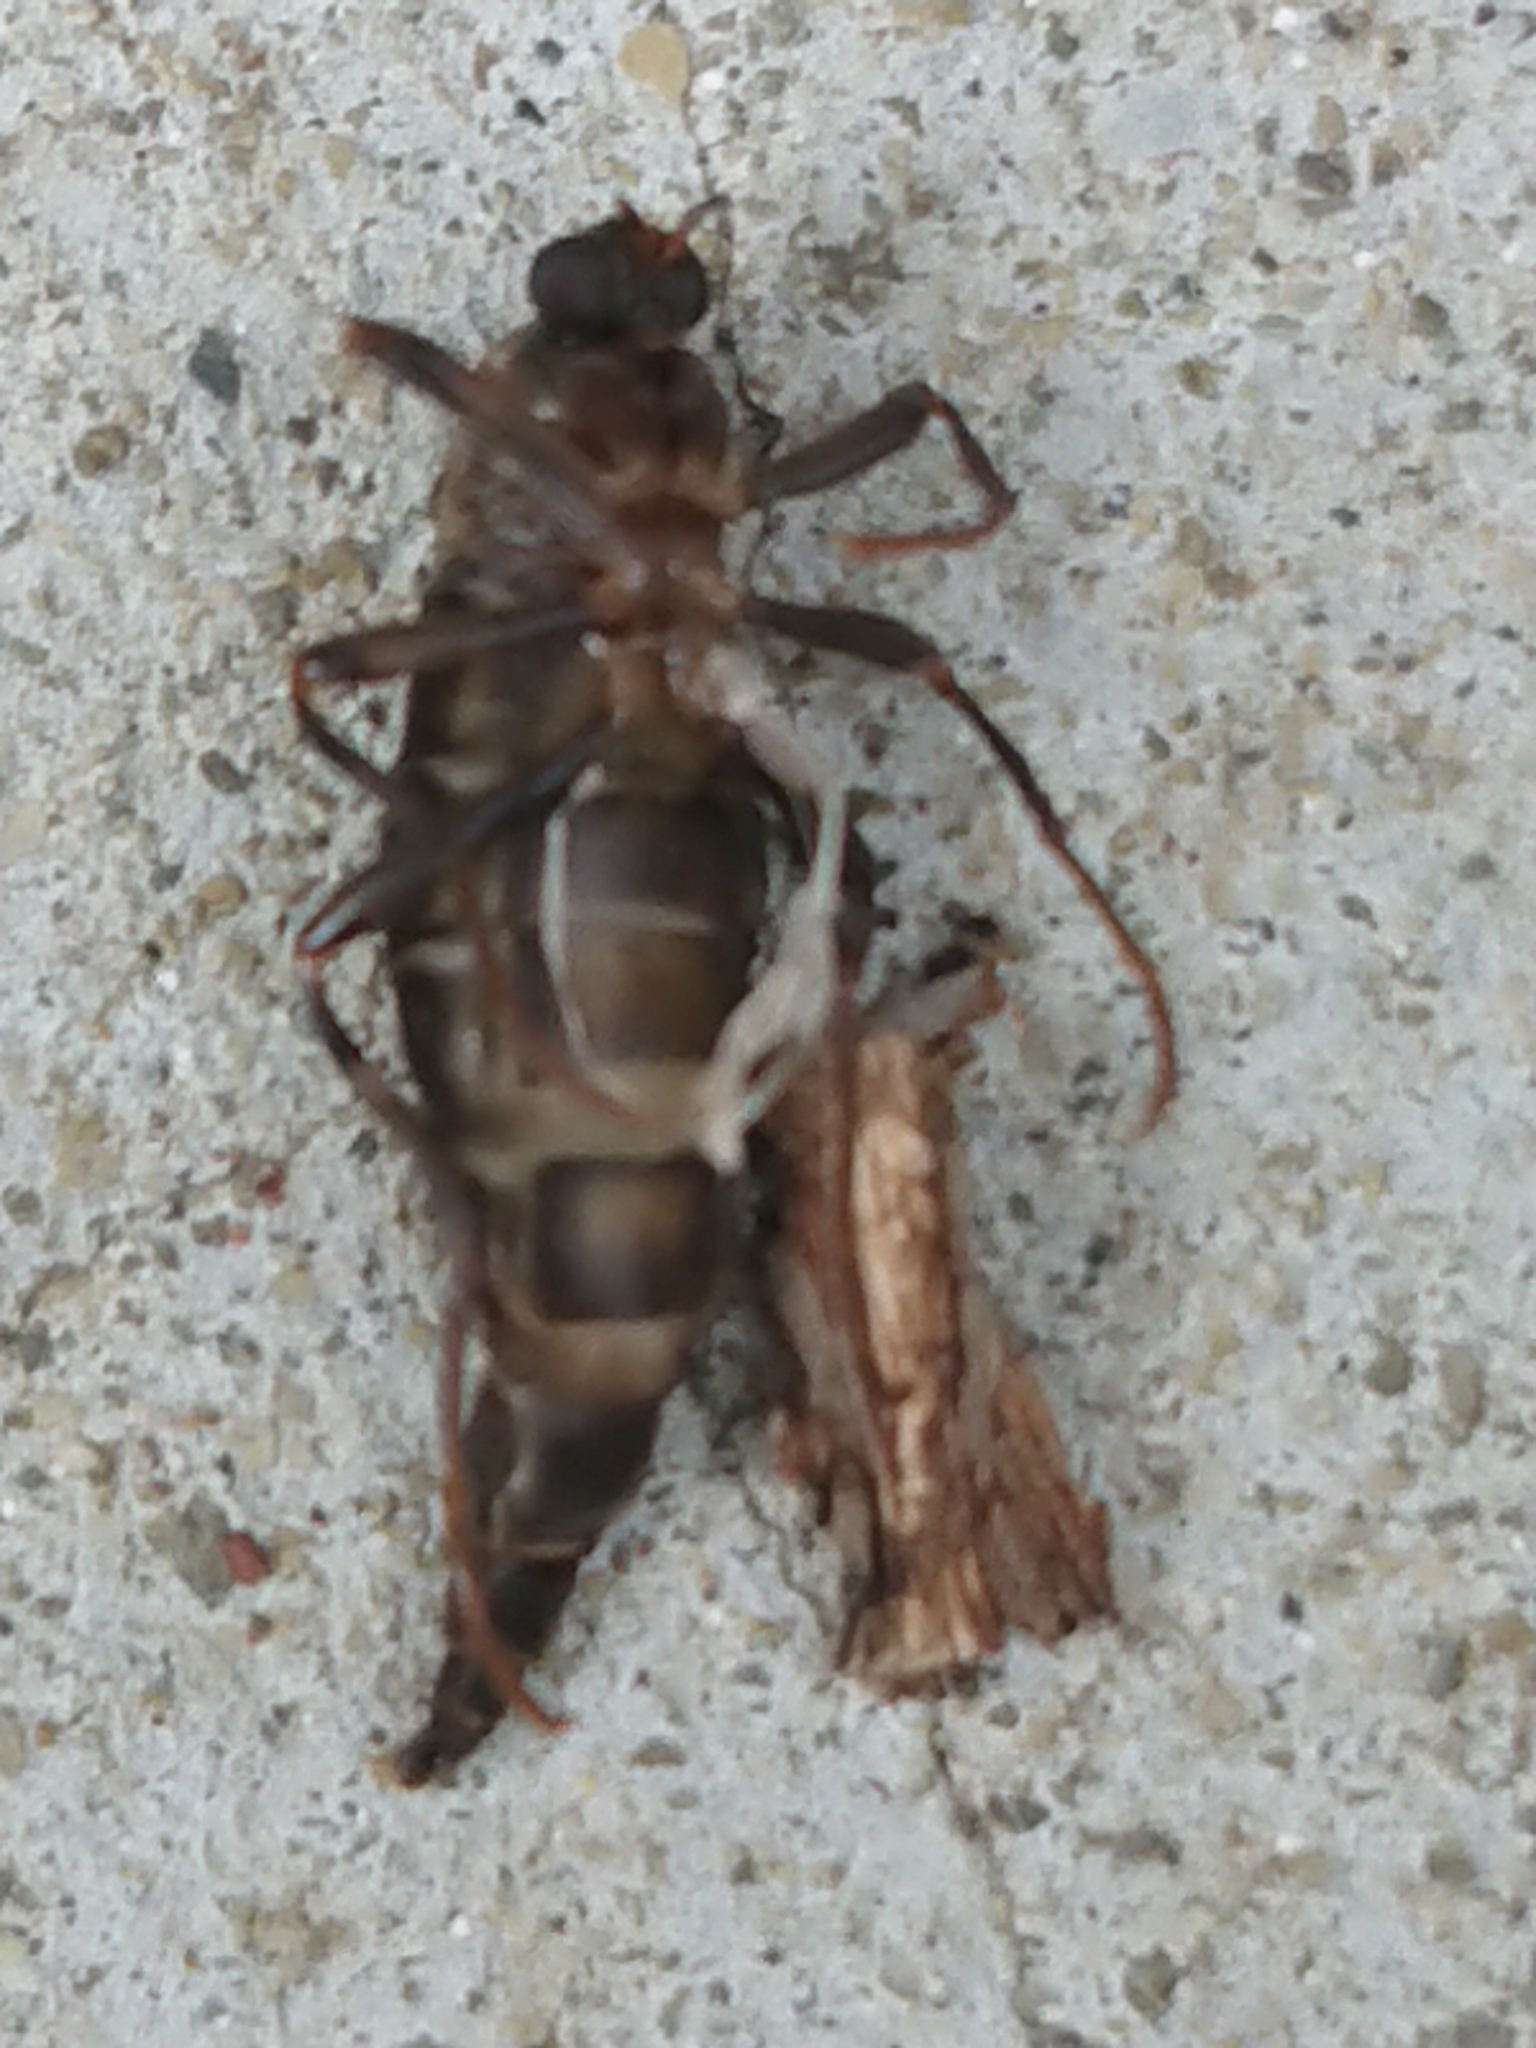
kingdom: Animalia
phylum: Arthropoda
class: Insecta
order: Diptera
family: Stratiomyidae
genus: Boreoides
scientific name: Boreoides tasmaniensis
